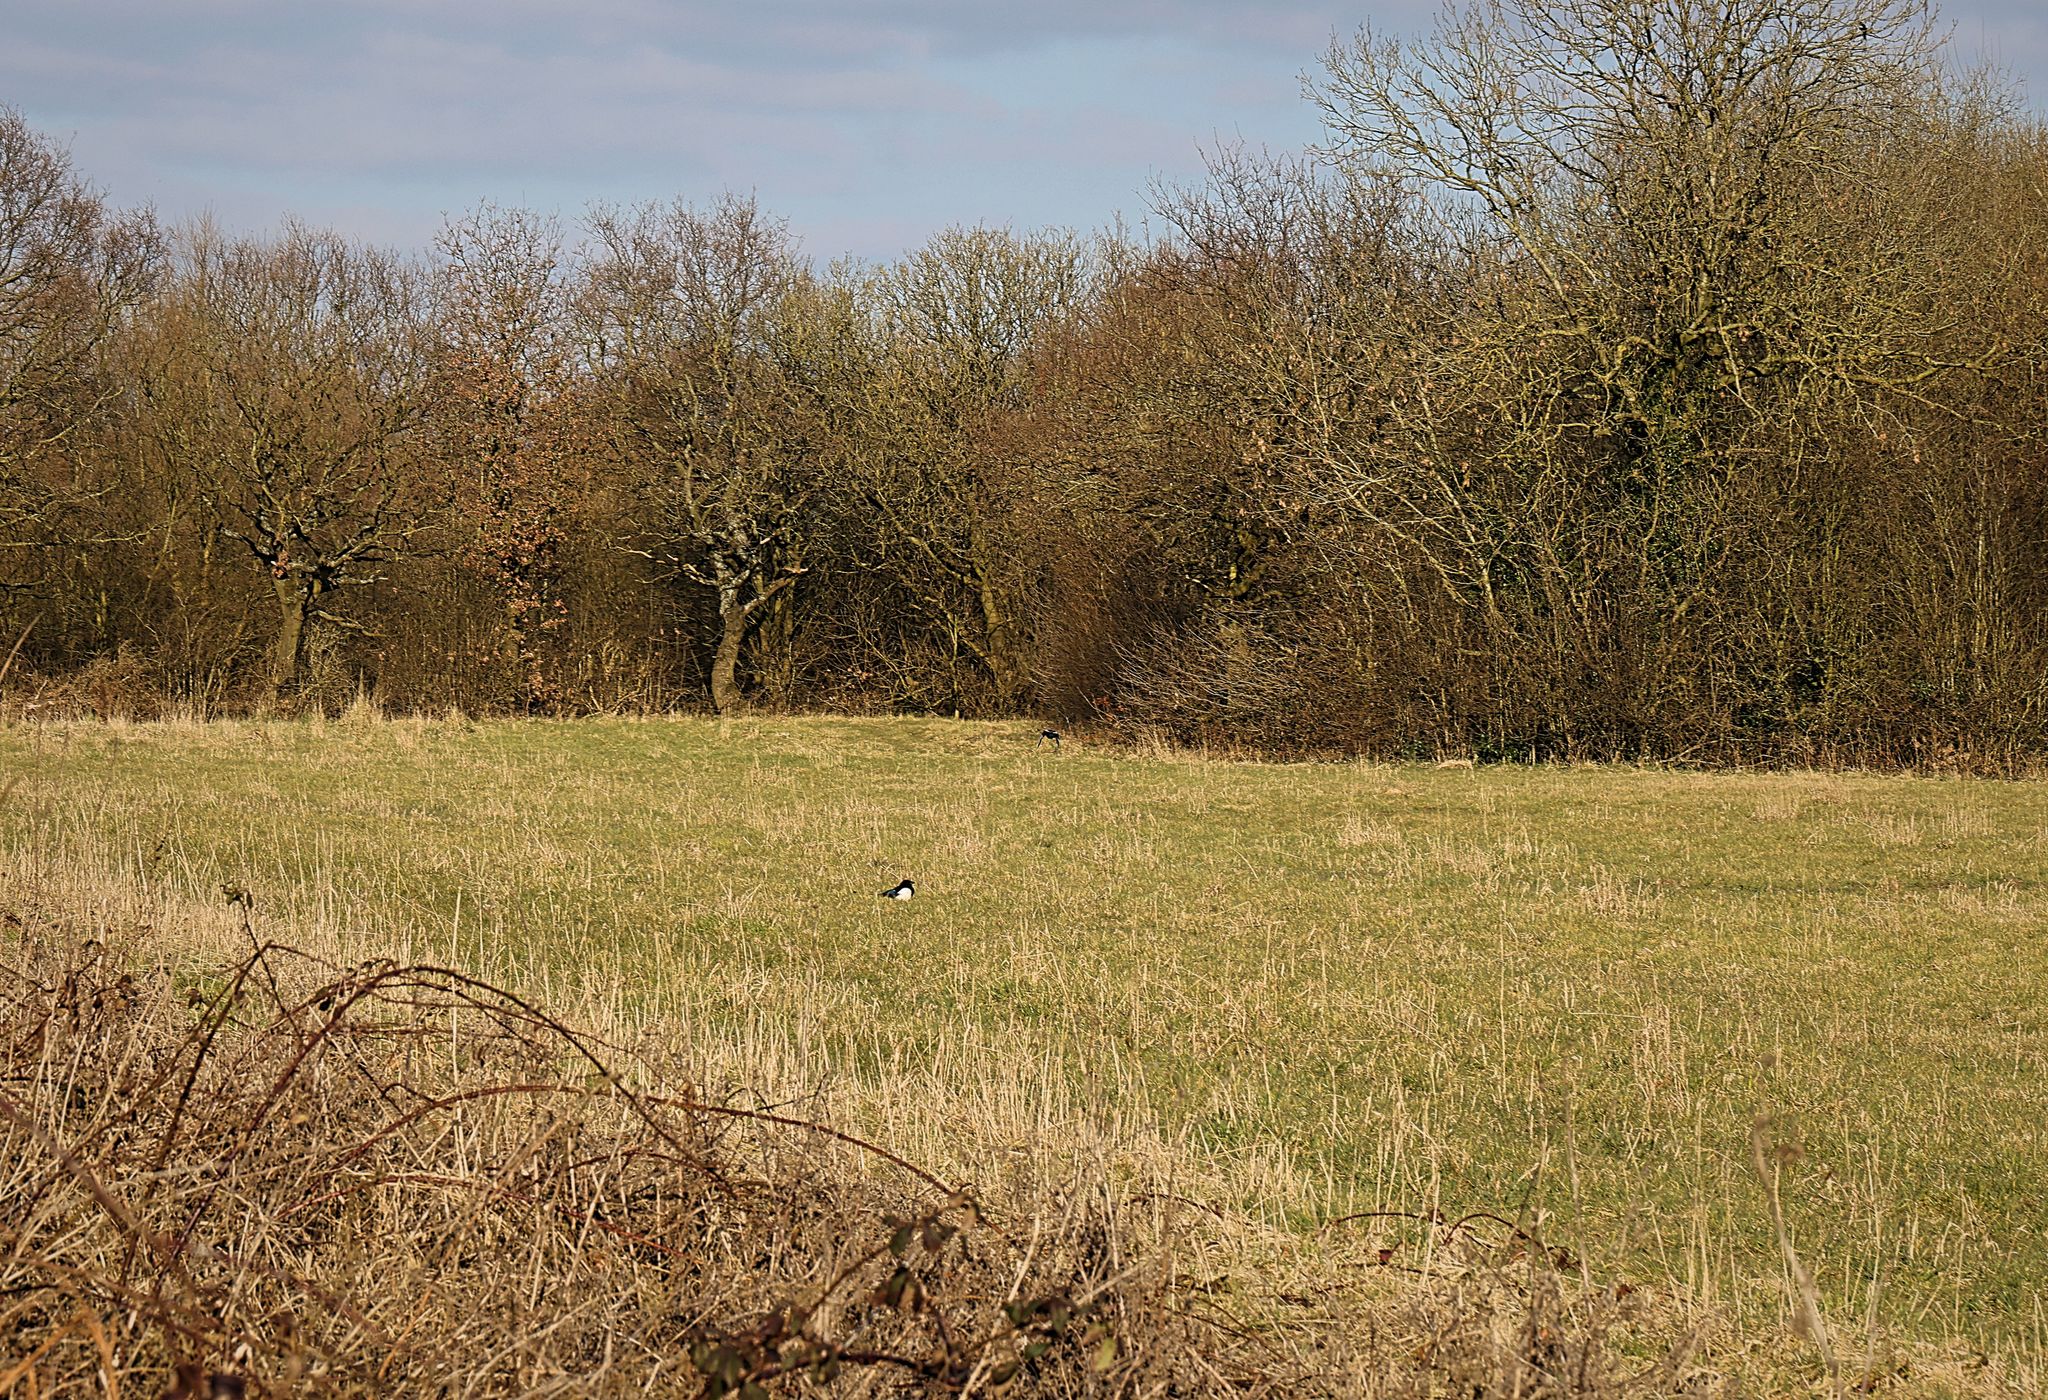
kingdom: Animalia
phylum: Chordata
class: Aves
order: Passeriformes
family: Corvidae
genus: Pica
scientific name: Pica pica
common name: Eurasian magpie
